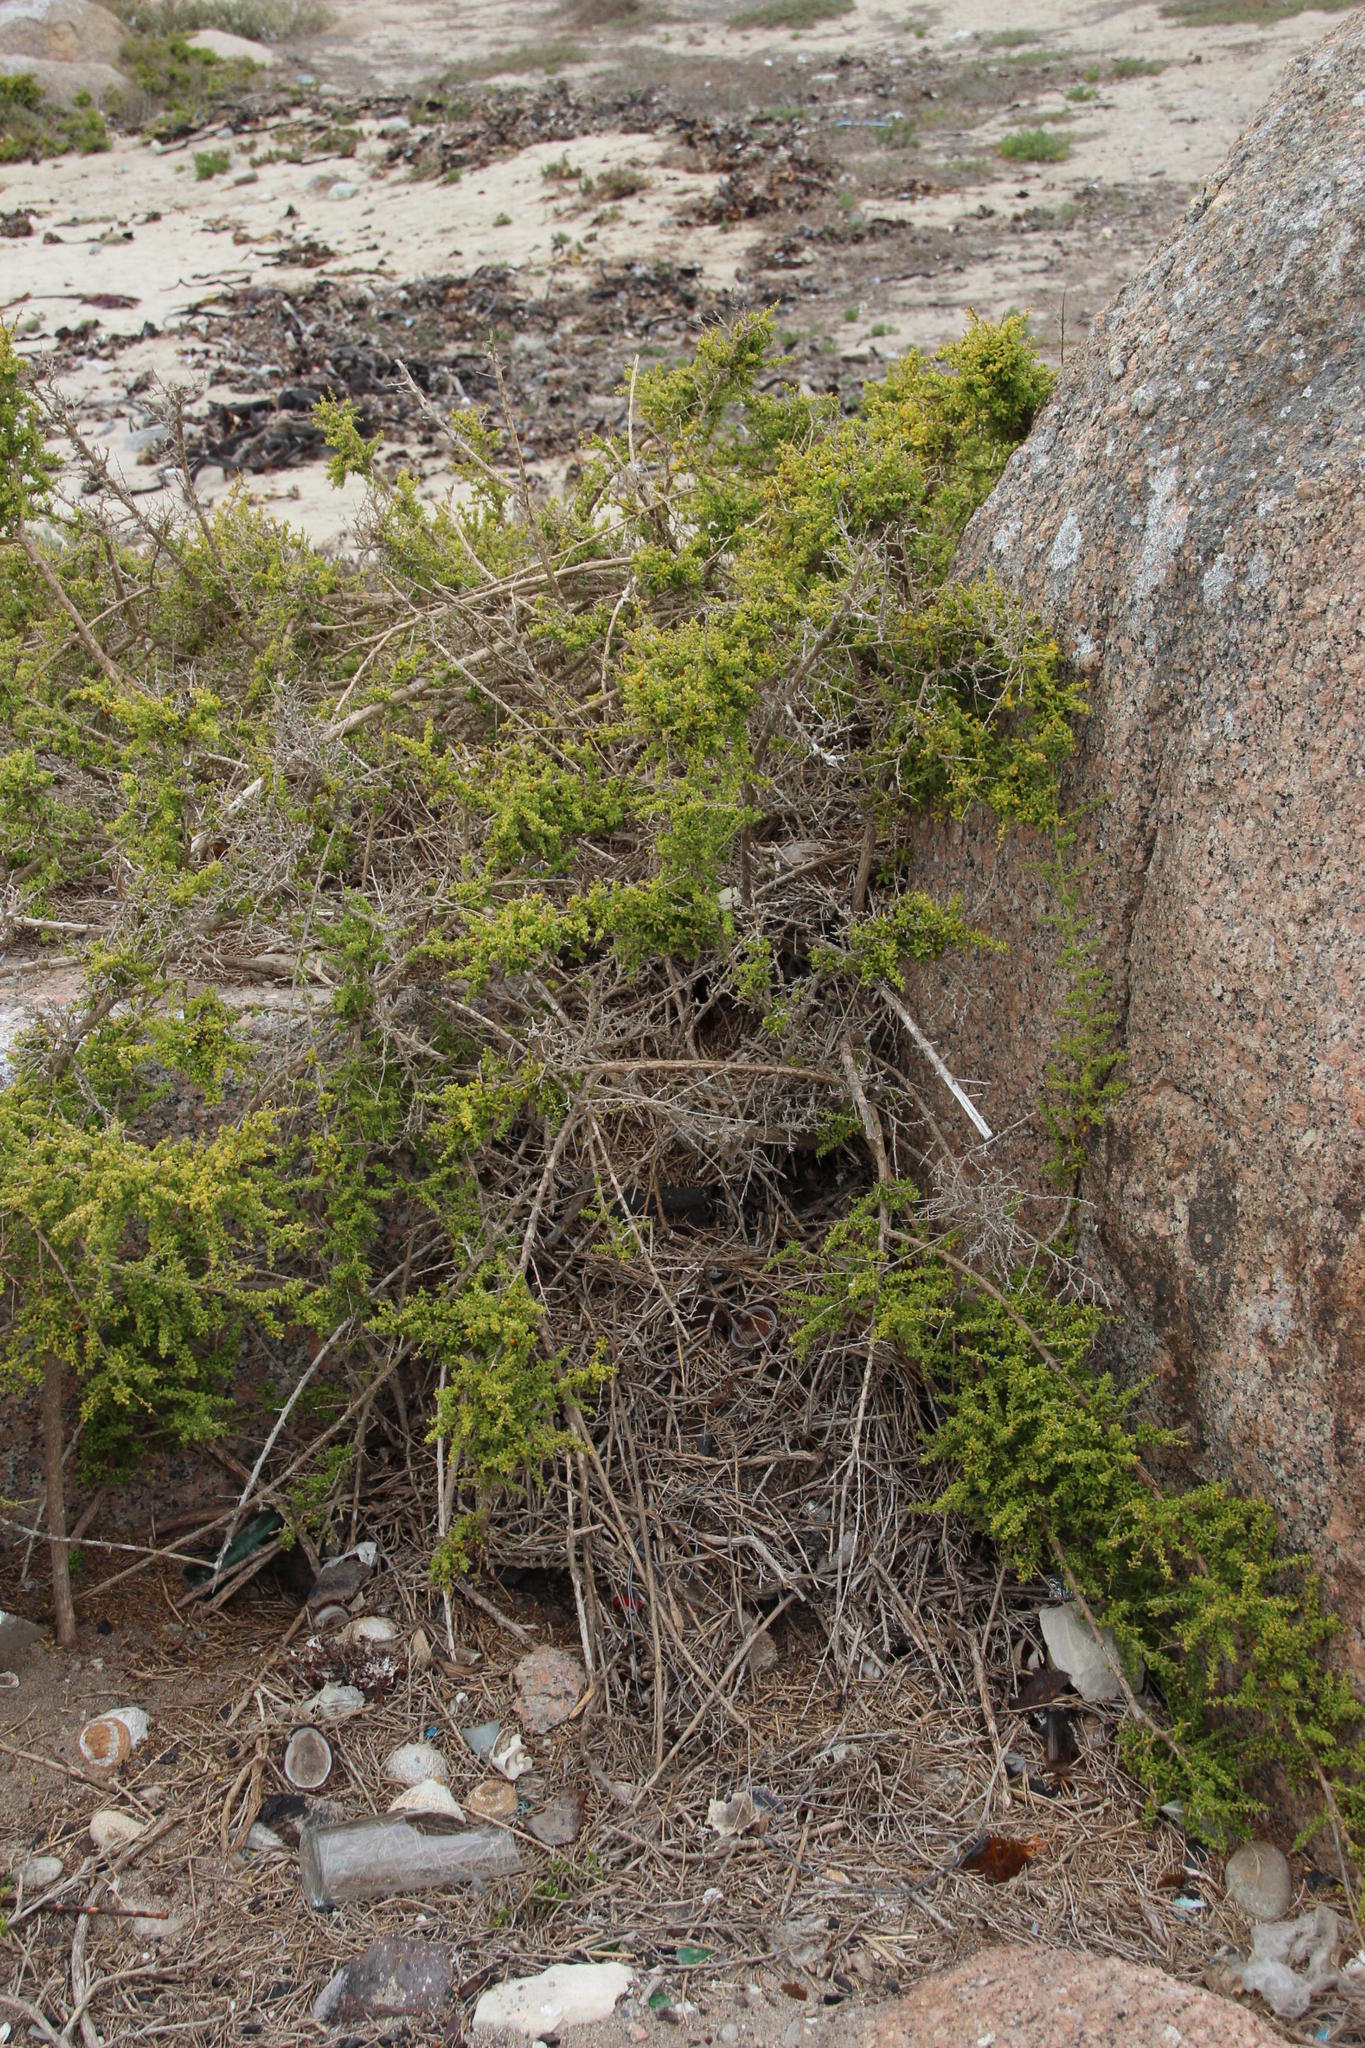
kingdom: Animalia
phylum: Chordata
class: Mammalia
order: Rodentia
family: Muridae
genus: Myotomys
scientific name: Myotomys unisulcatus
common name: Bush karroo rat
